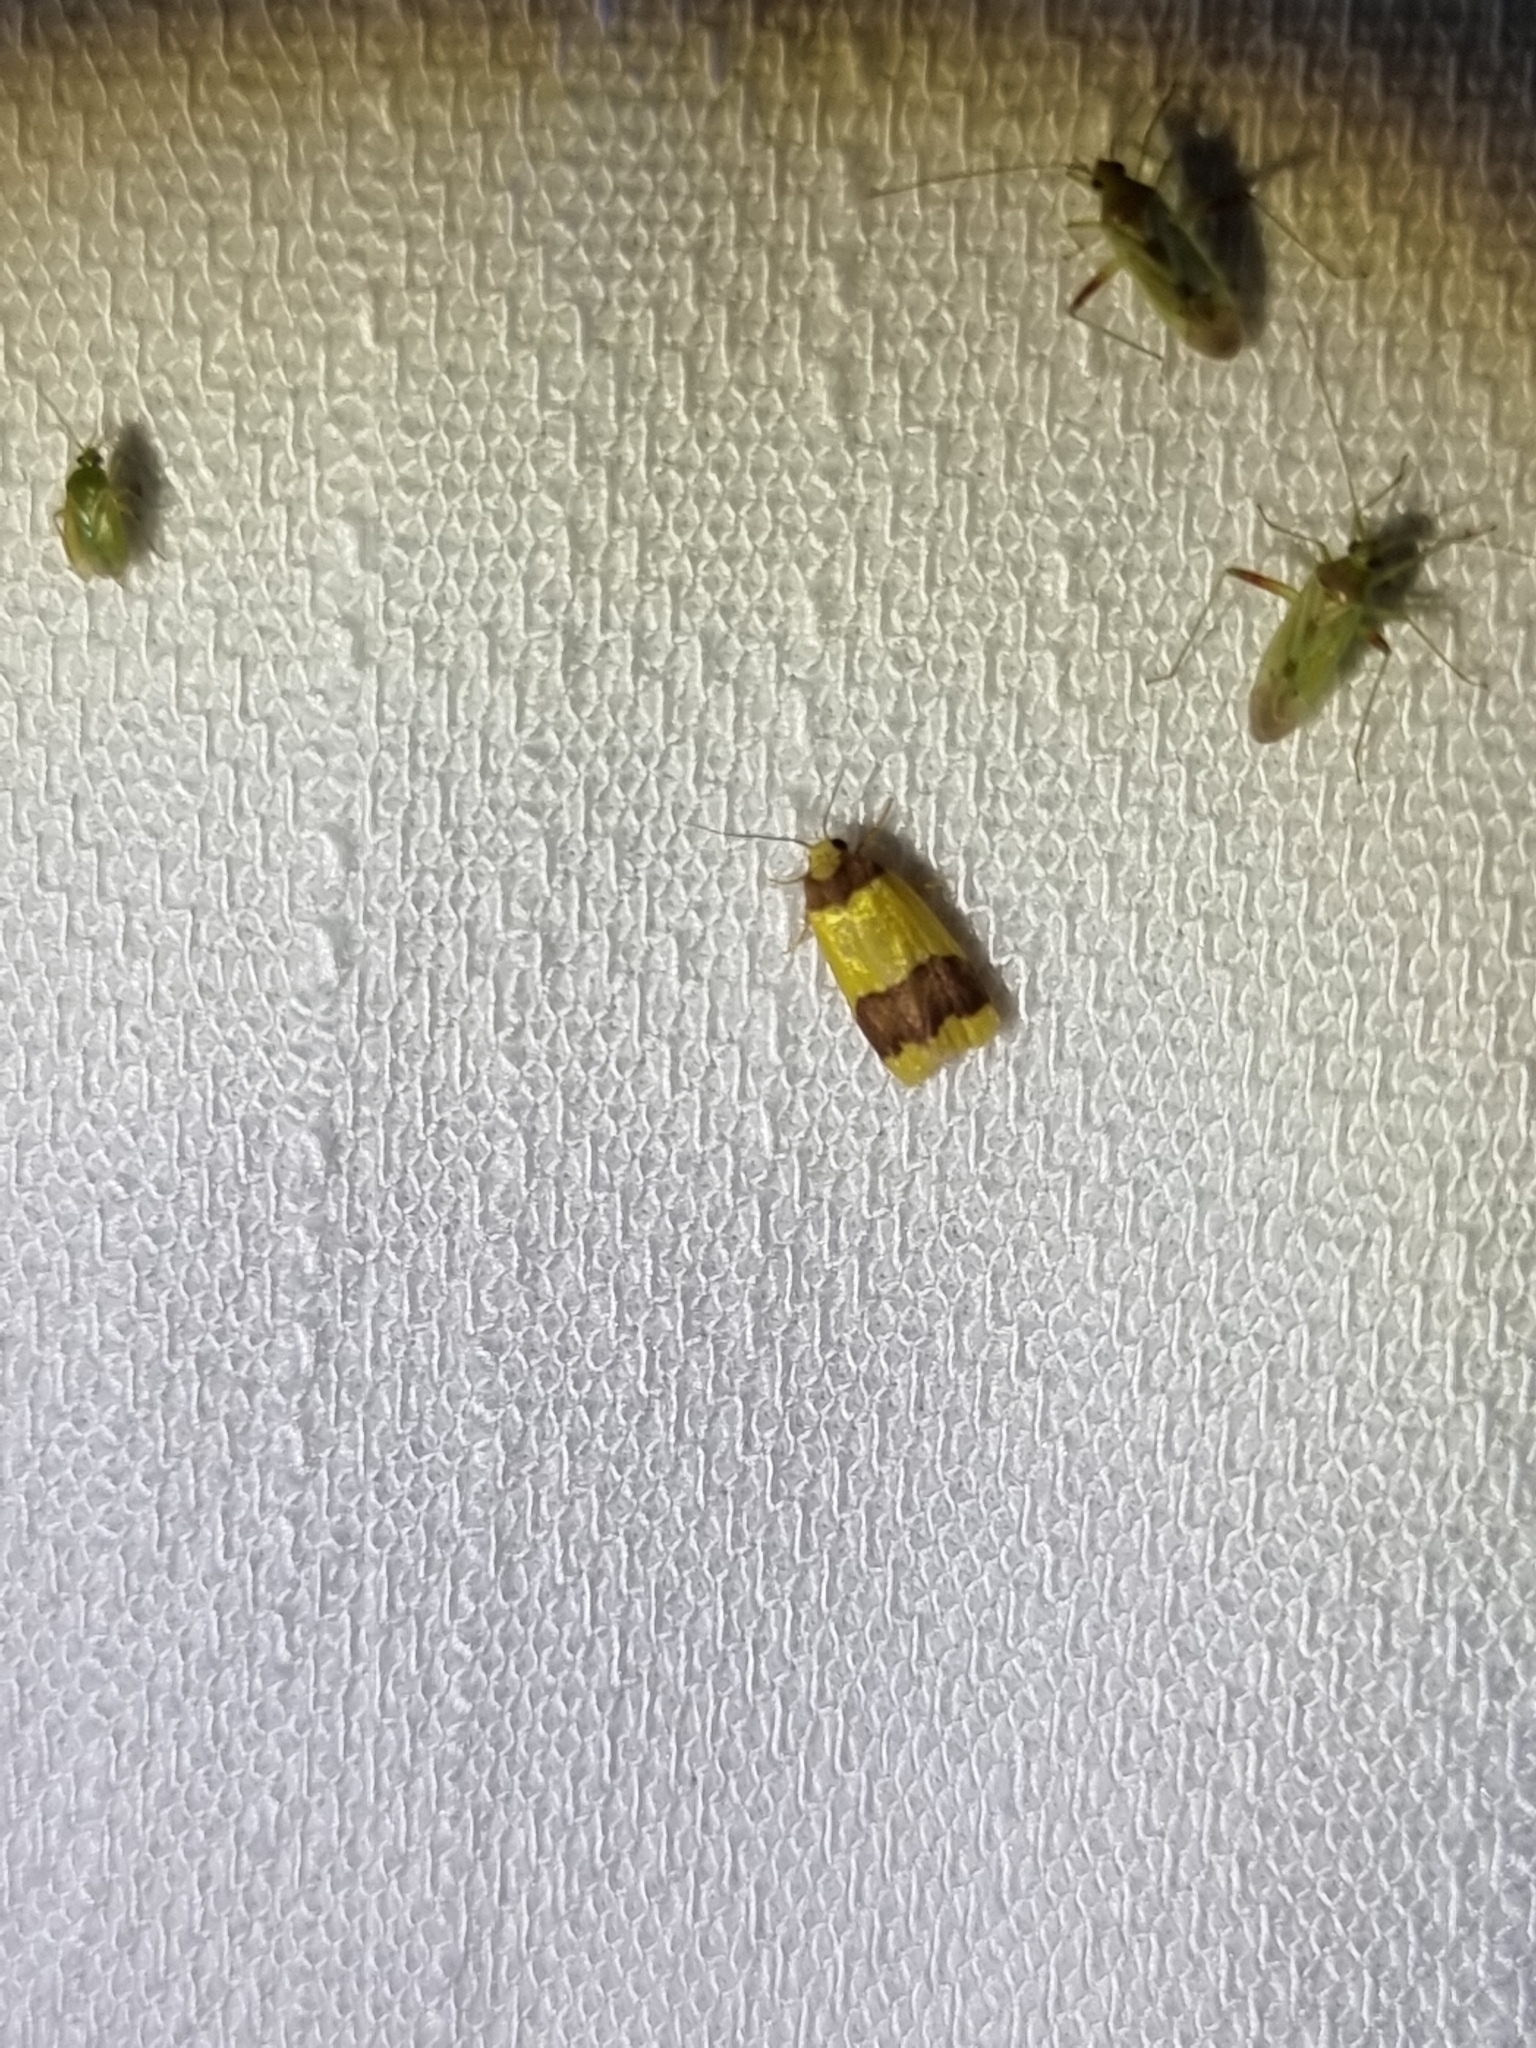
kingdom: Animalia
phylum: Arthropoda
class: Insecta
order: Lepidoptera
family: Erebidae
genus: Heterallactis
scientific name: Heterallactis microchrysa
